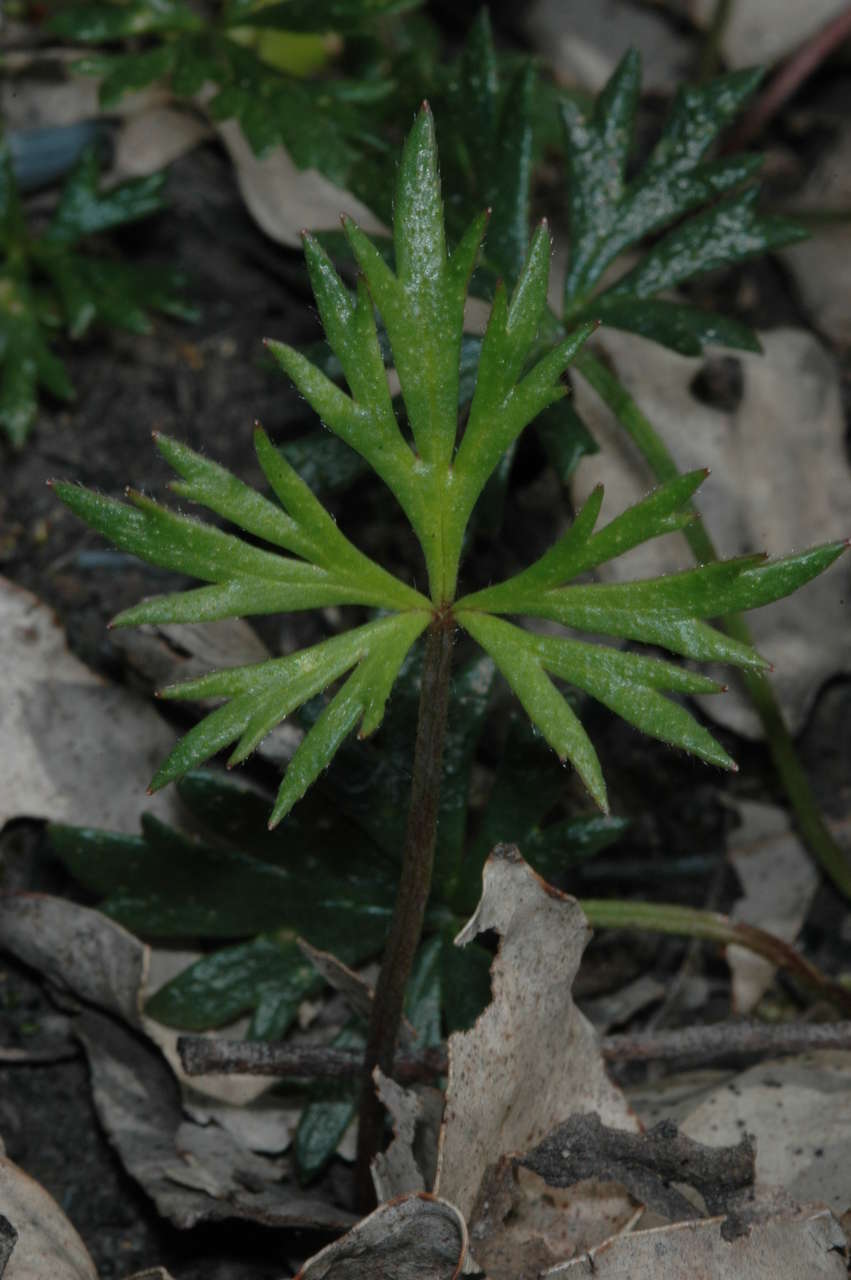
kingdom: Plantae
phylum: Tracheophyta
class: Magnoliopsida
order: Ranunculales
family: Ranunculaceae
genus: Ranunculus
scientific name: Ranunculus glabrifolius
